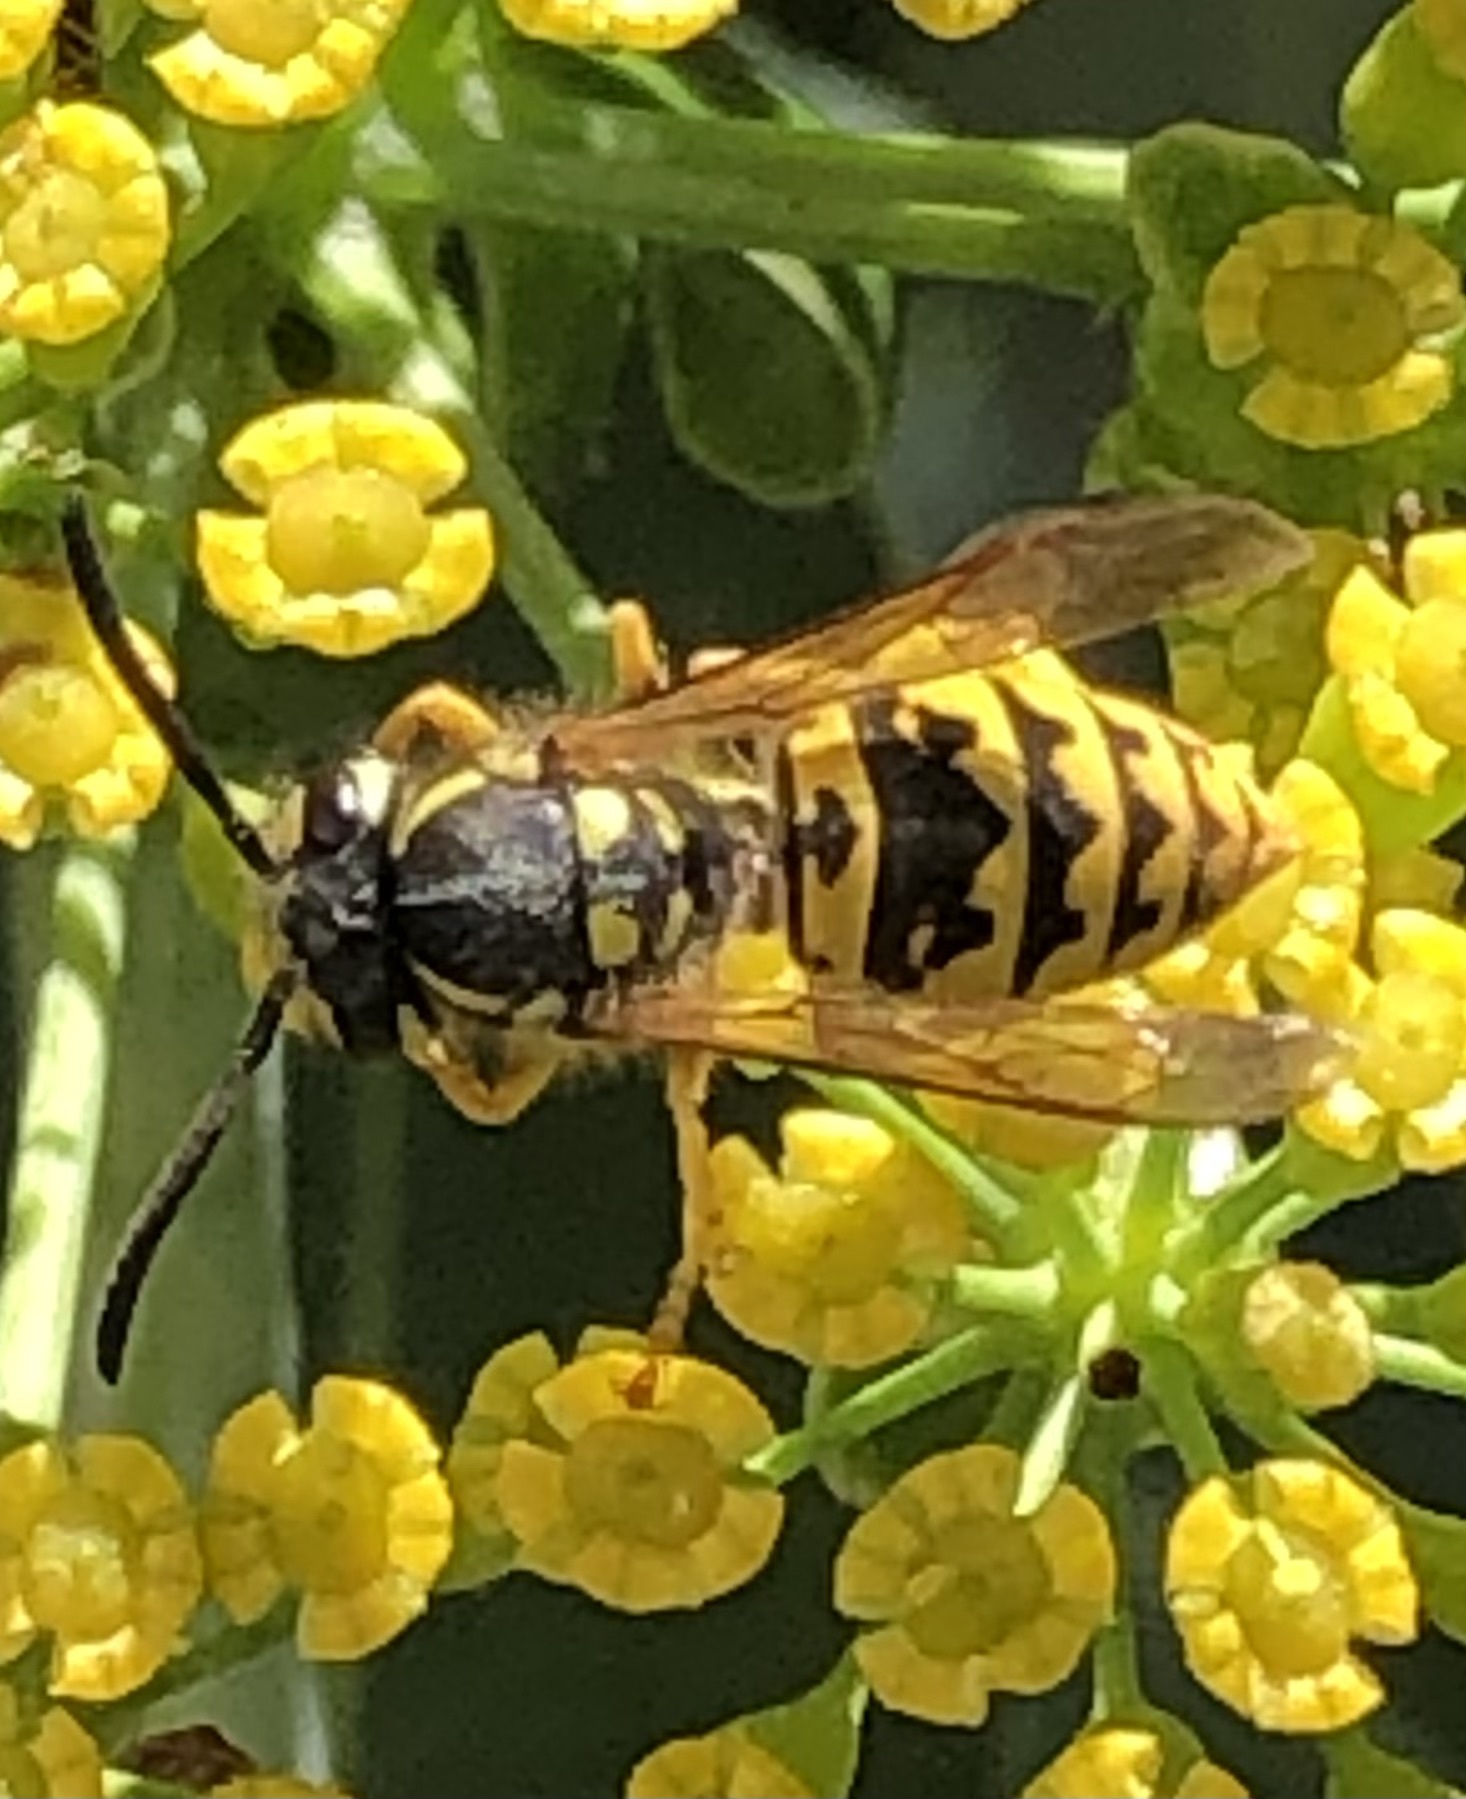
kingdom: Animalia
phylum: Arthropoda
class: Insecta
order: Hymenoptera
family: Vespidae
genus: Vespula
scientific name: Vespula germanica
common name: German wasp
